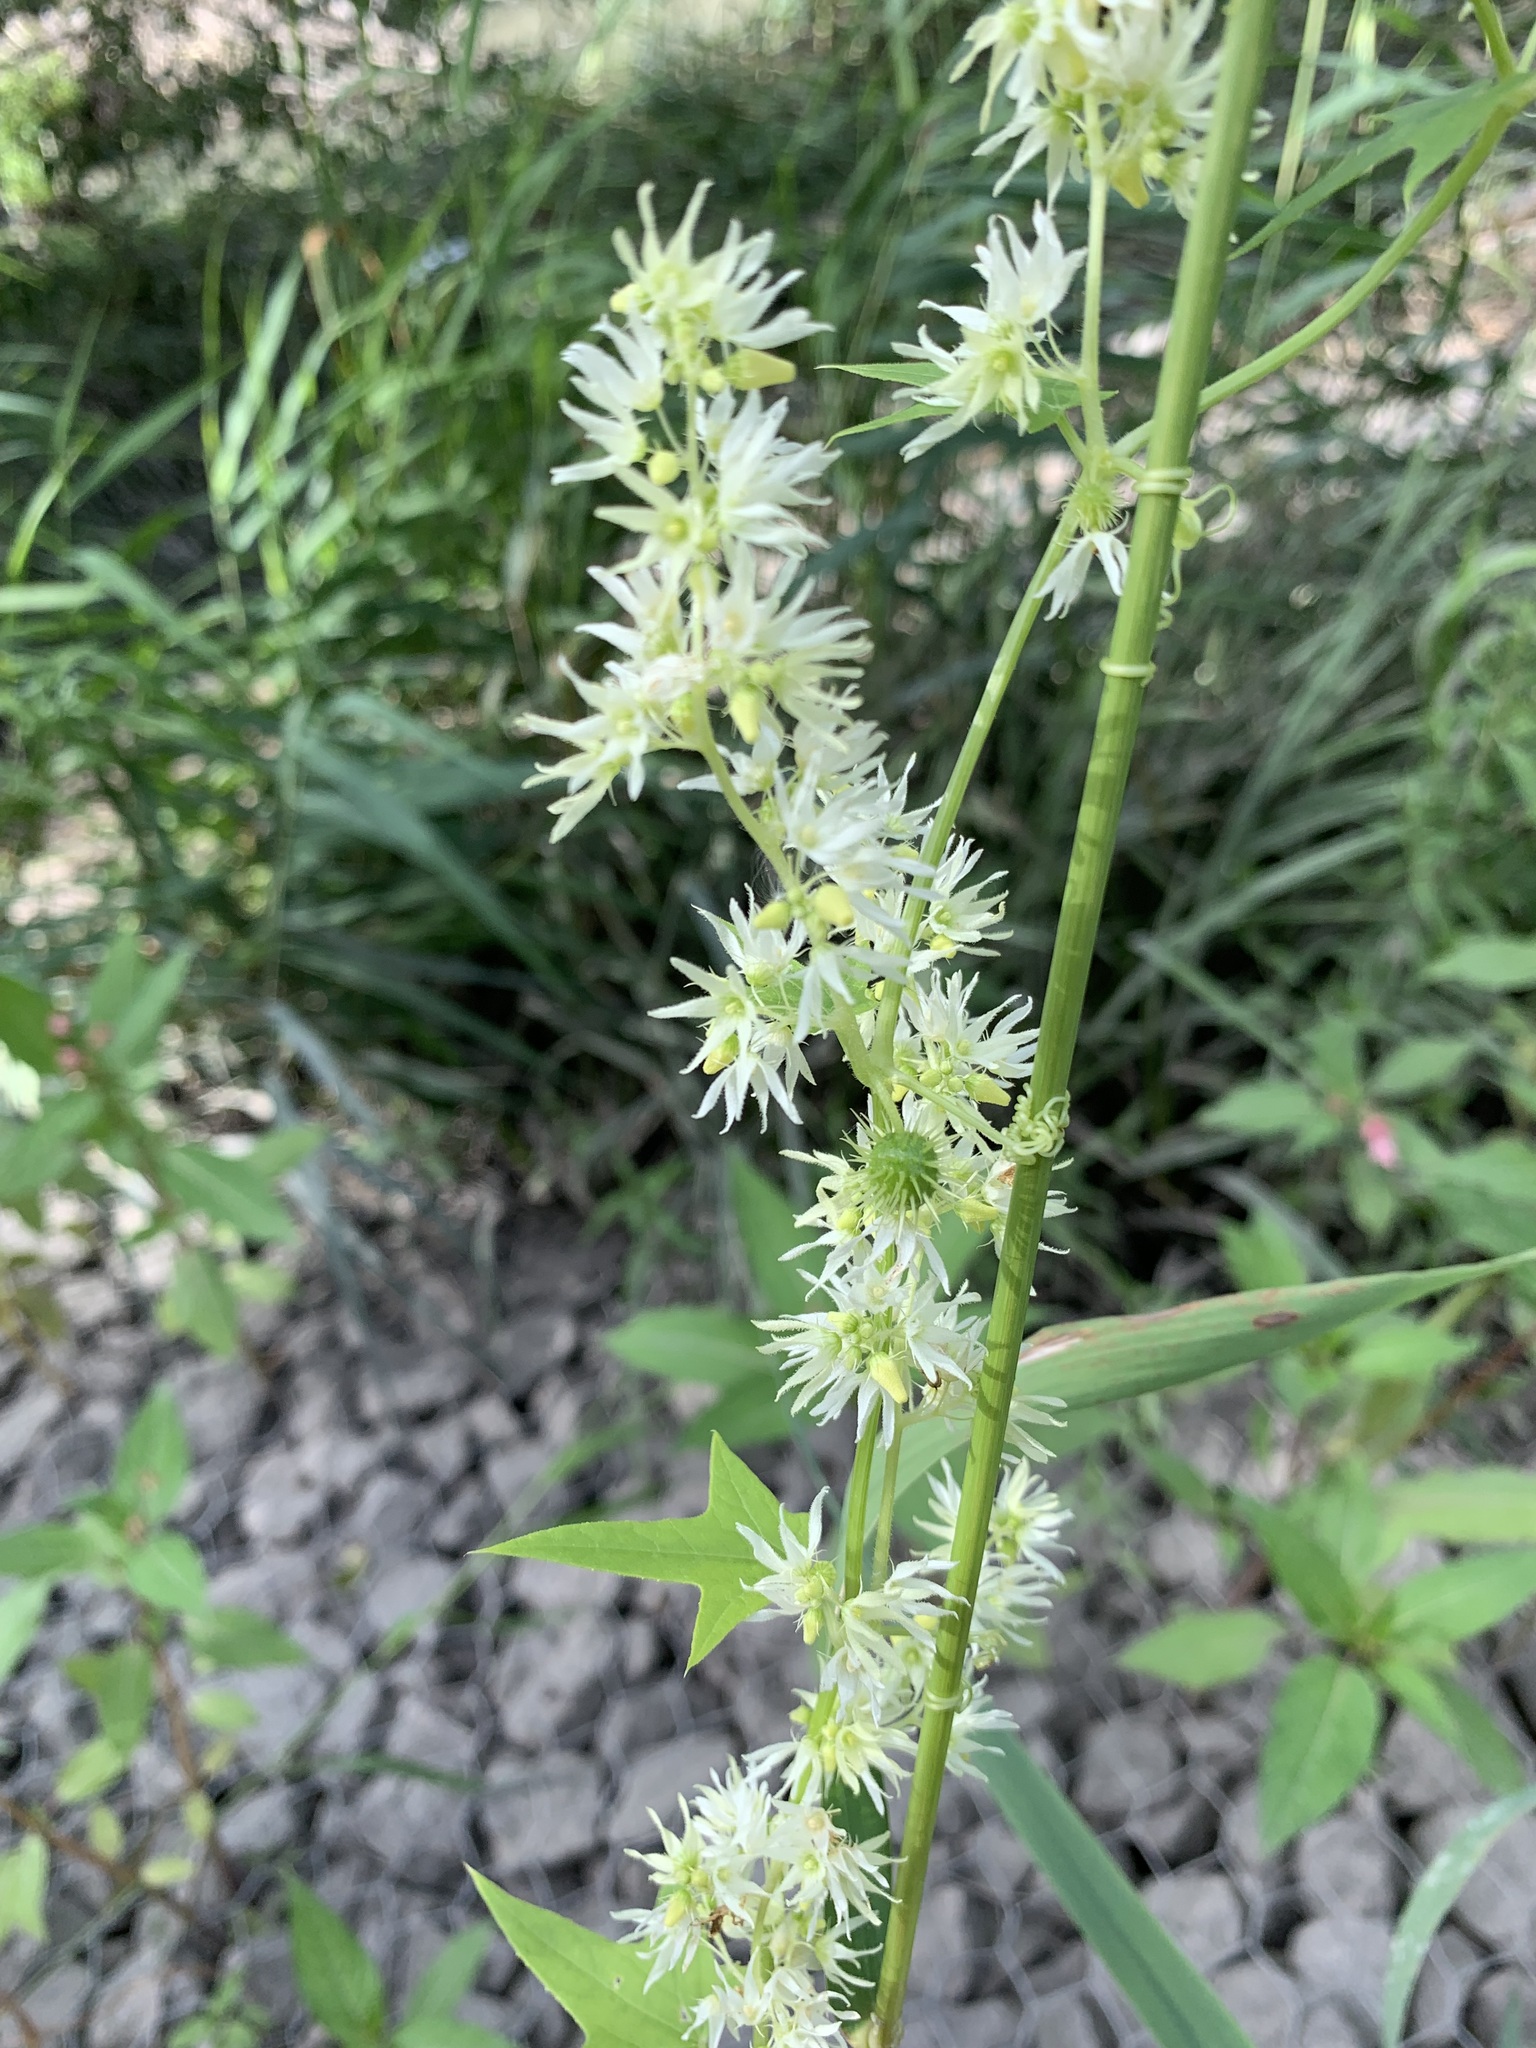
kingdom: Plantae
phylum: Tracheophyta
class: Magnoliopsida
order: Cucurbitales
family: Cucurbitaceae
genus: Echinocystis
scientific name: Echinocystis lobata
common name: Wild cucumber
